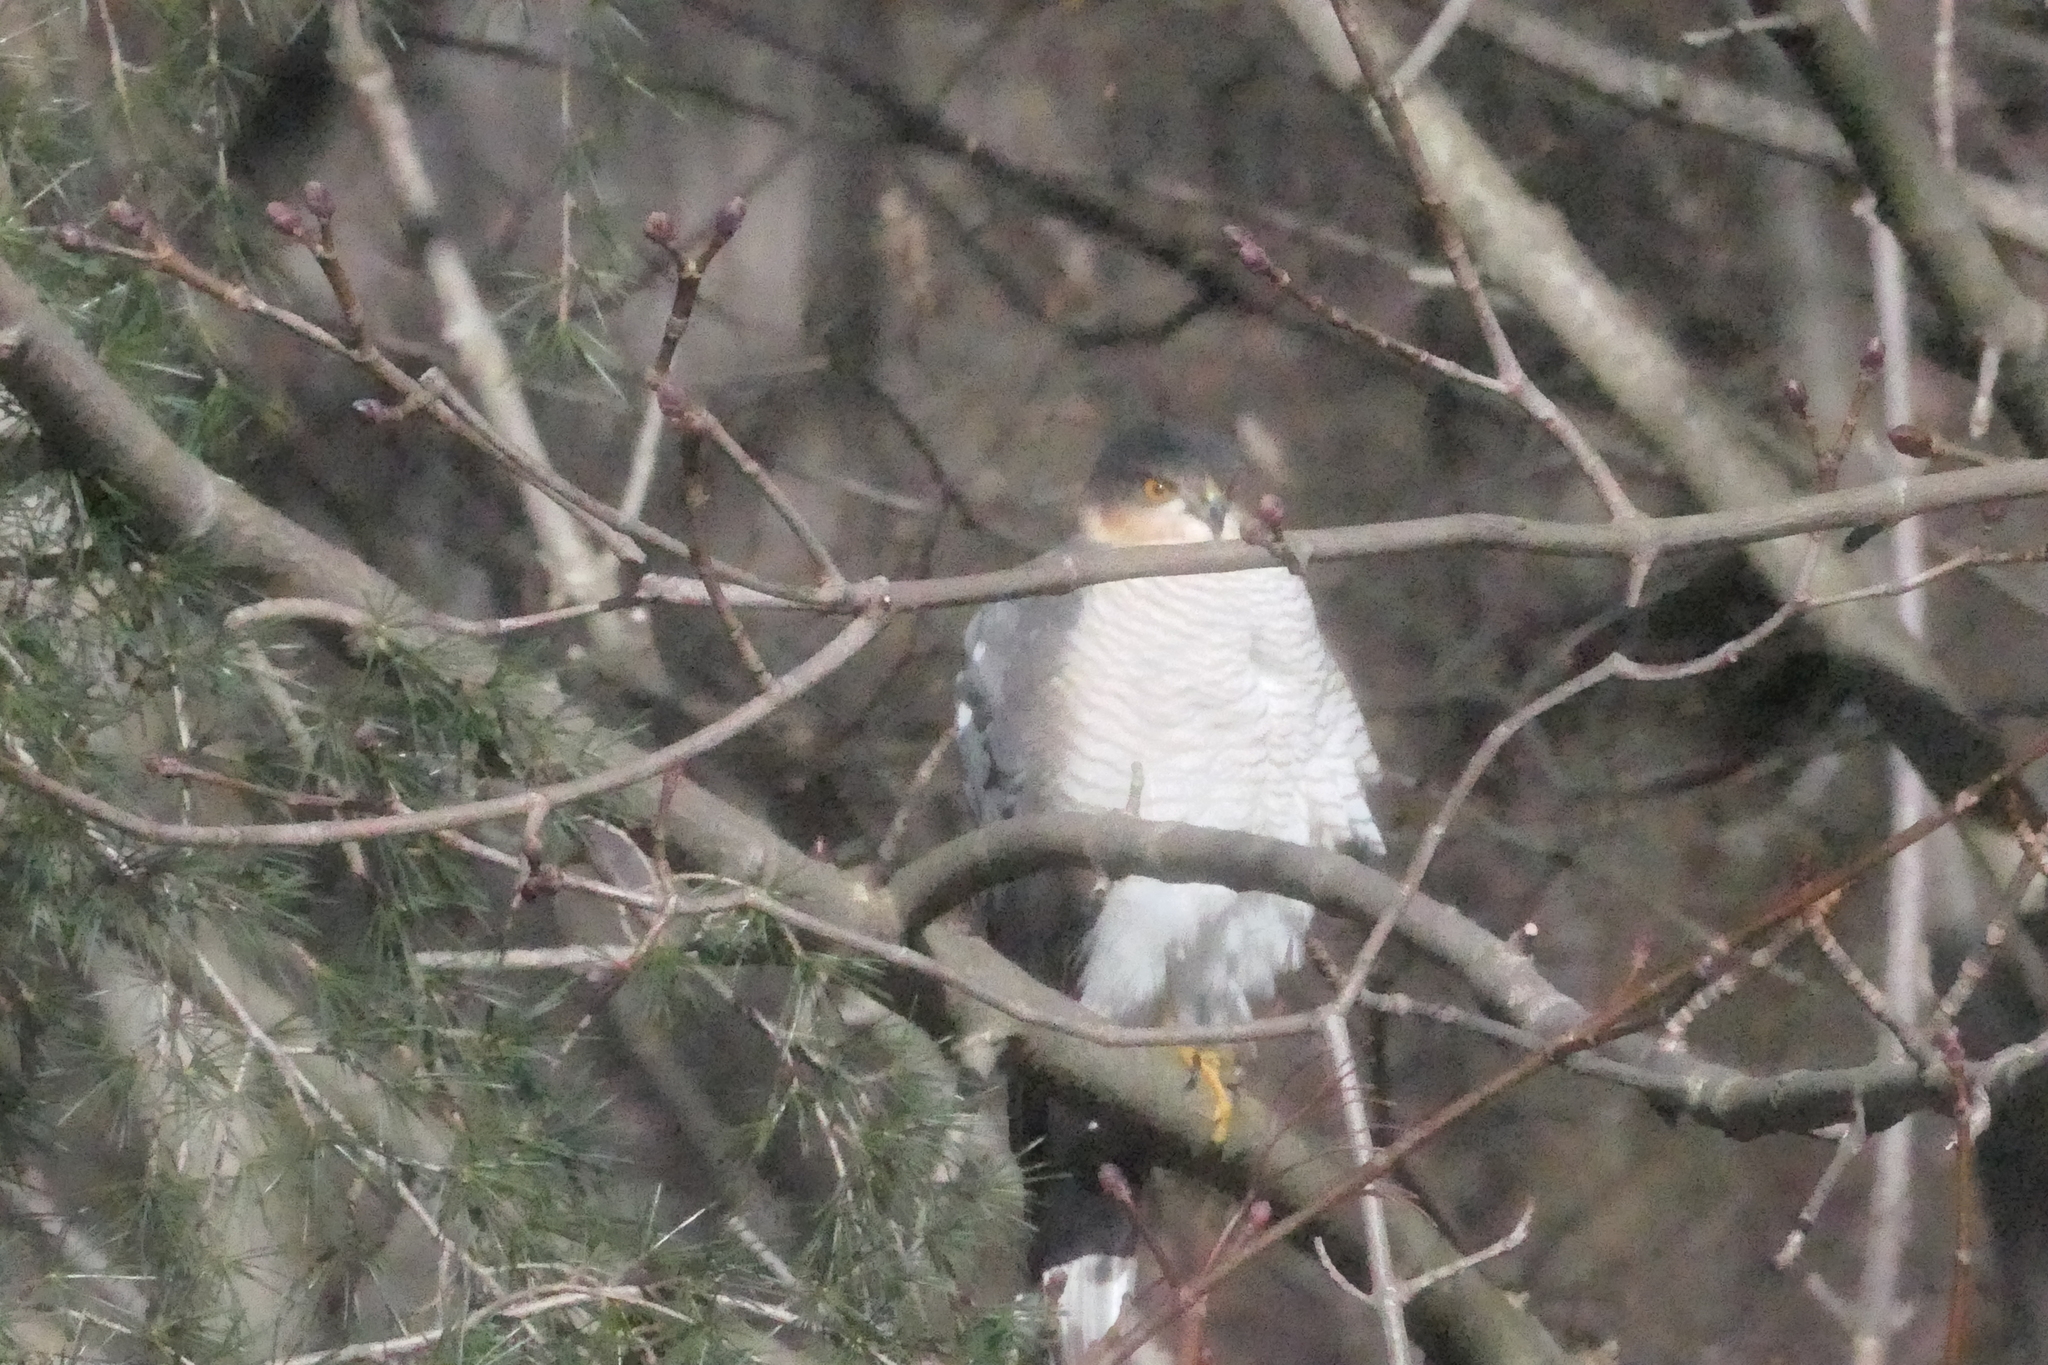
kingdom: Animalia
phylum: Chordata
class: Aves
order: Accipitriformes
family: Accipitridae
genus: Accipiter
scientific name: Accipiter nisus
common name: Eurasian sparrowhawk
